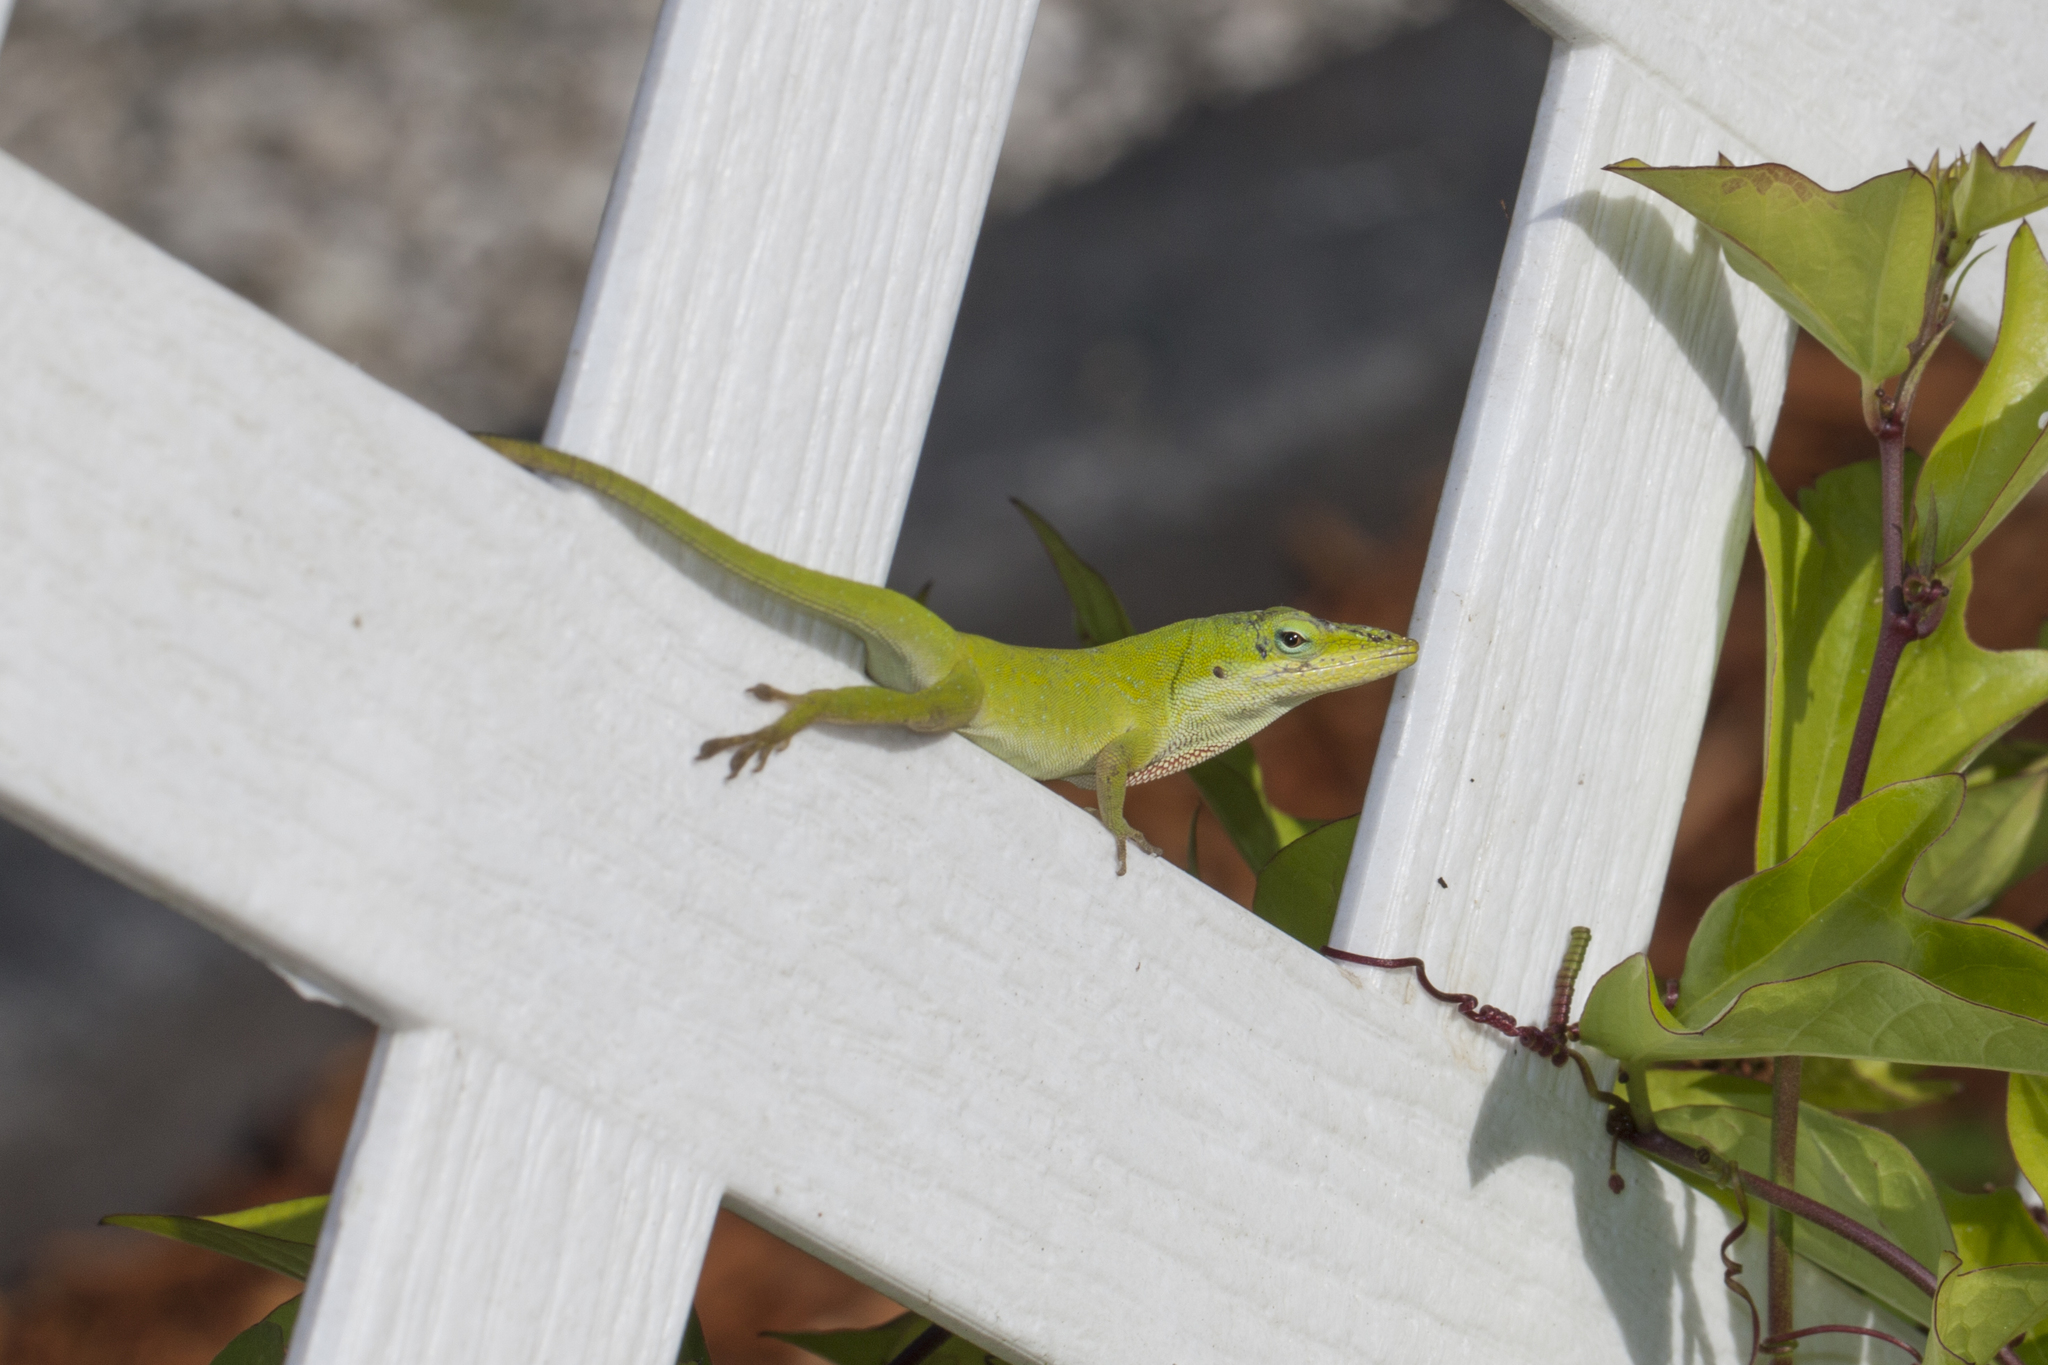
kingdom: Animalia
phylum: Chordata
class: Squamata
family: Dactyloidae
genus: Anolis
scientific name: Anolis carolinensis
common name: Green anole
